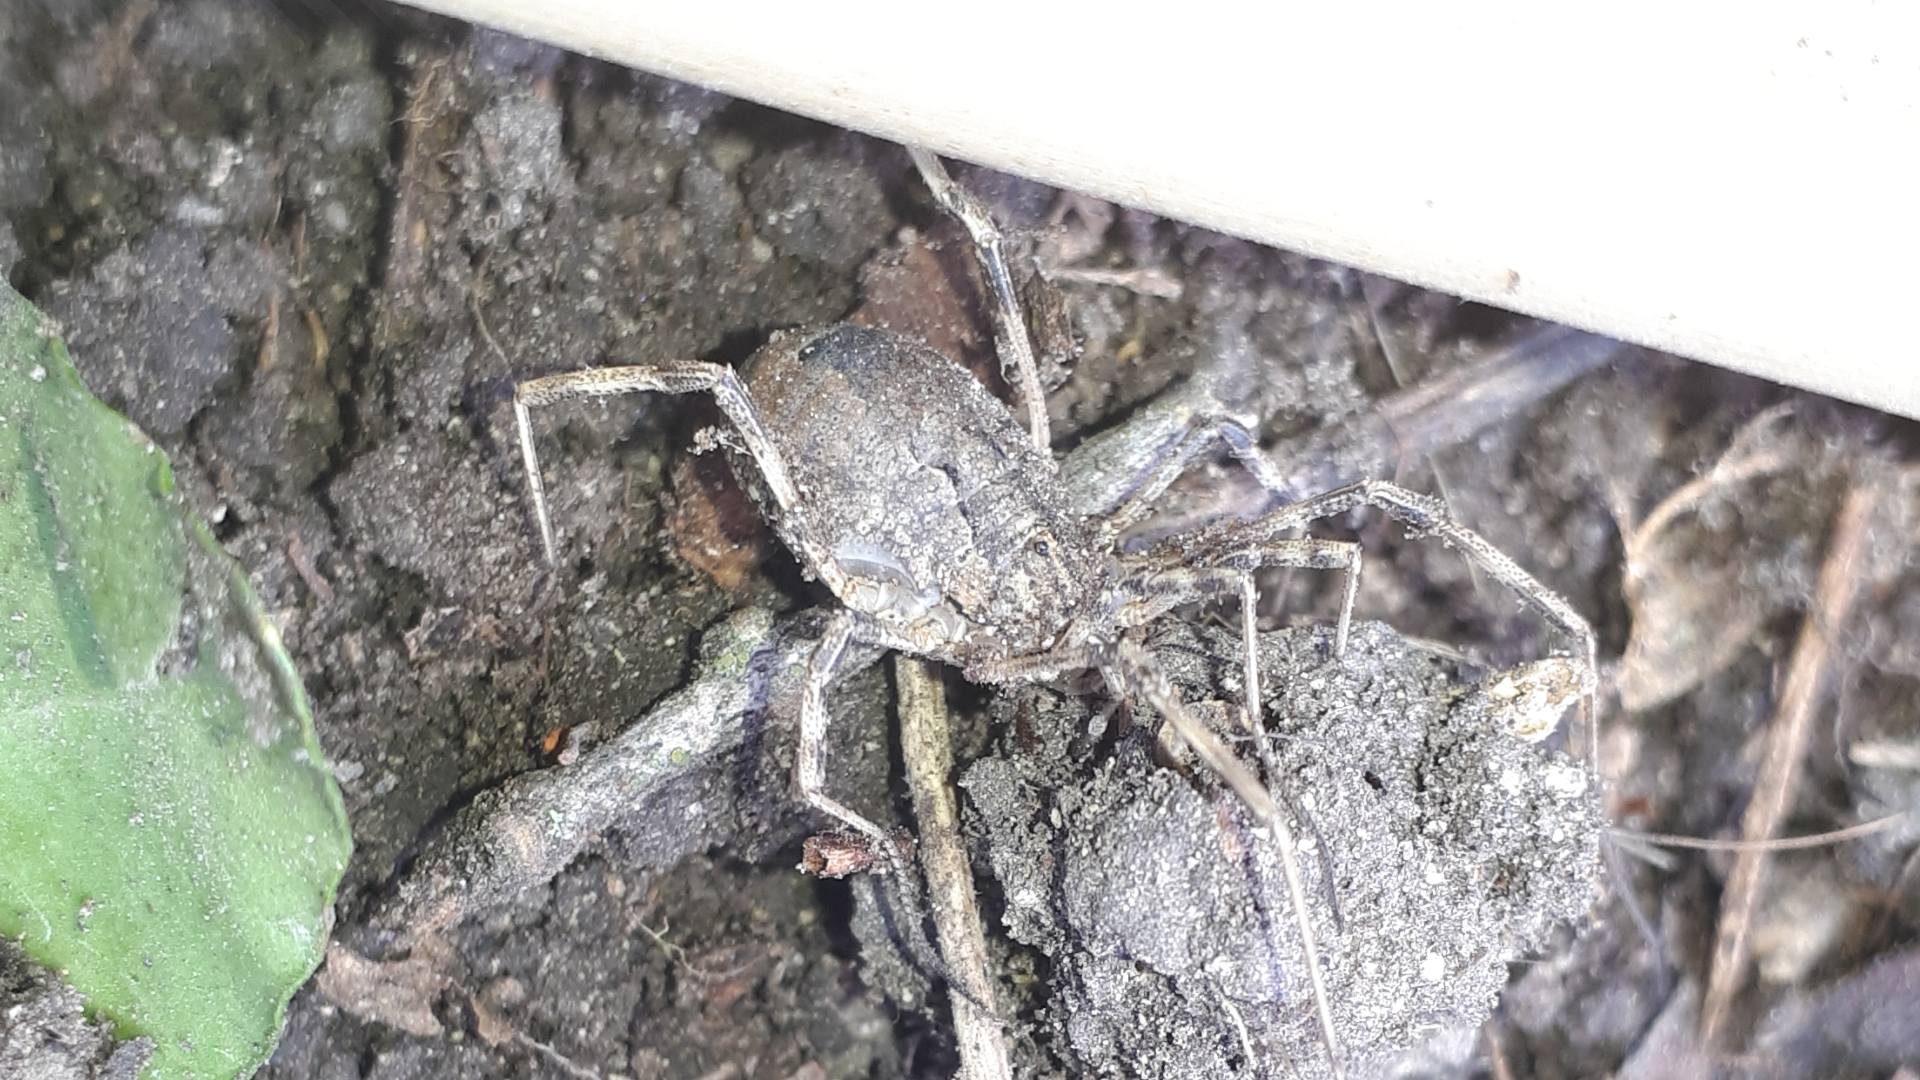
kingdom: Animalia
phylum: Arthropoda
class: Arachnida
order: Opiliones
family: Phalangiidae
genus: Odiellus
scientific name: Odiellus spinosus
